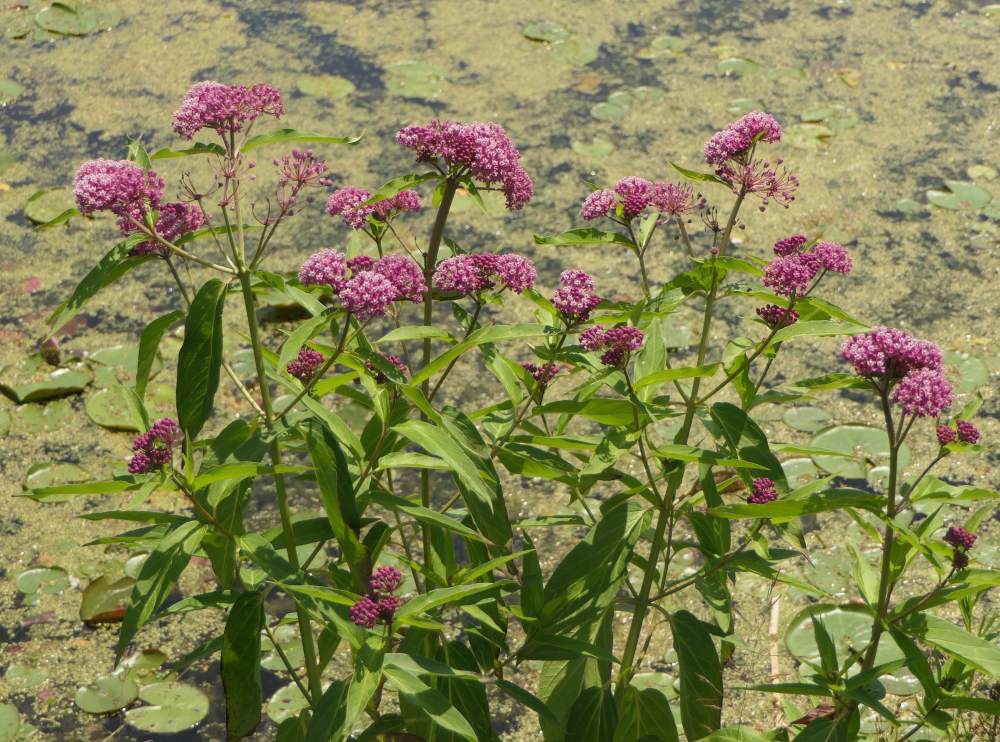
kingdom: Plantae
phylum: Tracheophyta
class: Magnoliopsida
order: Gentianales
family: Apocynaceae
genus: Asclepias
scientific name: Asclepias incarnata
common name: Swamp milkweed
